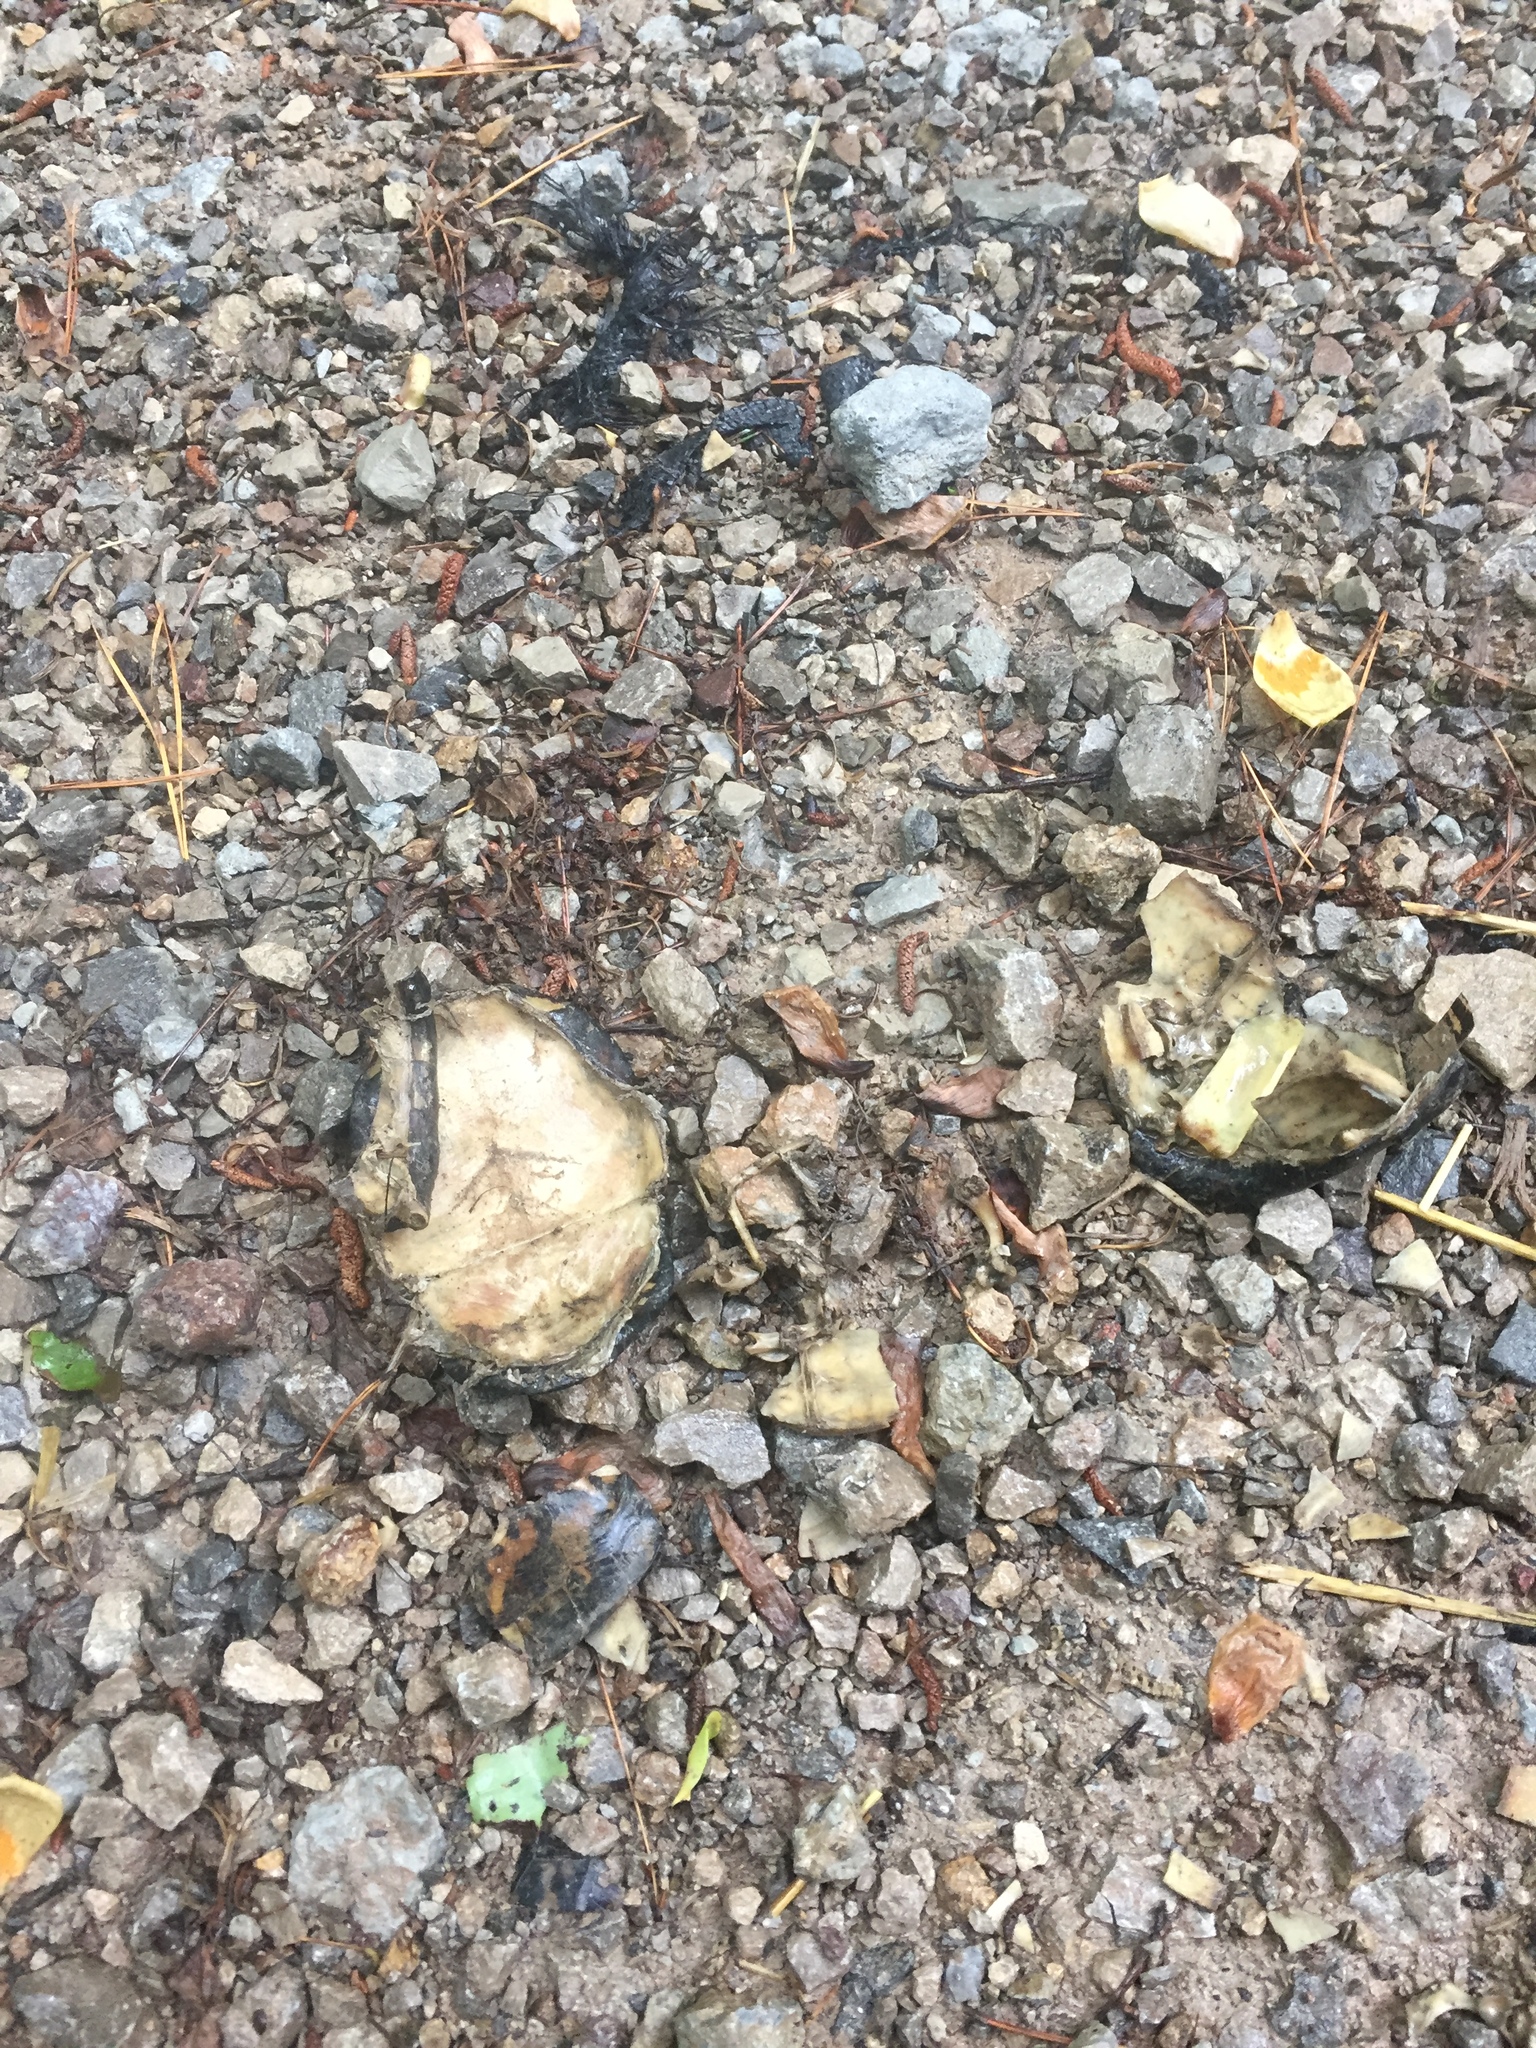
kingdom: Animalia
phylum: Chordata
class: Testudines
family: Emydidae
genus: Terrapene
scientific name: Terrapene carolina
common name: Common box turtle
